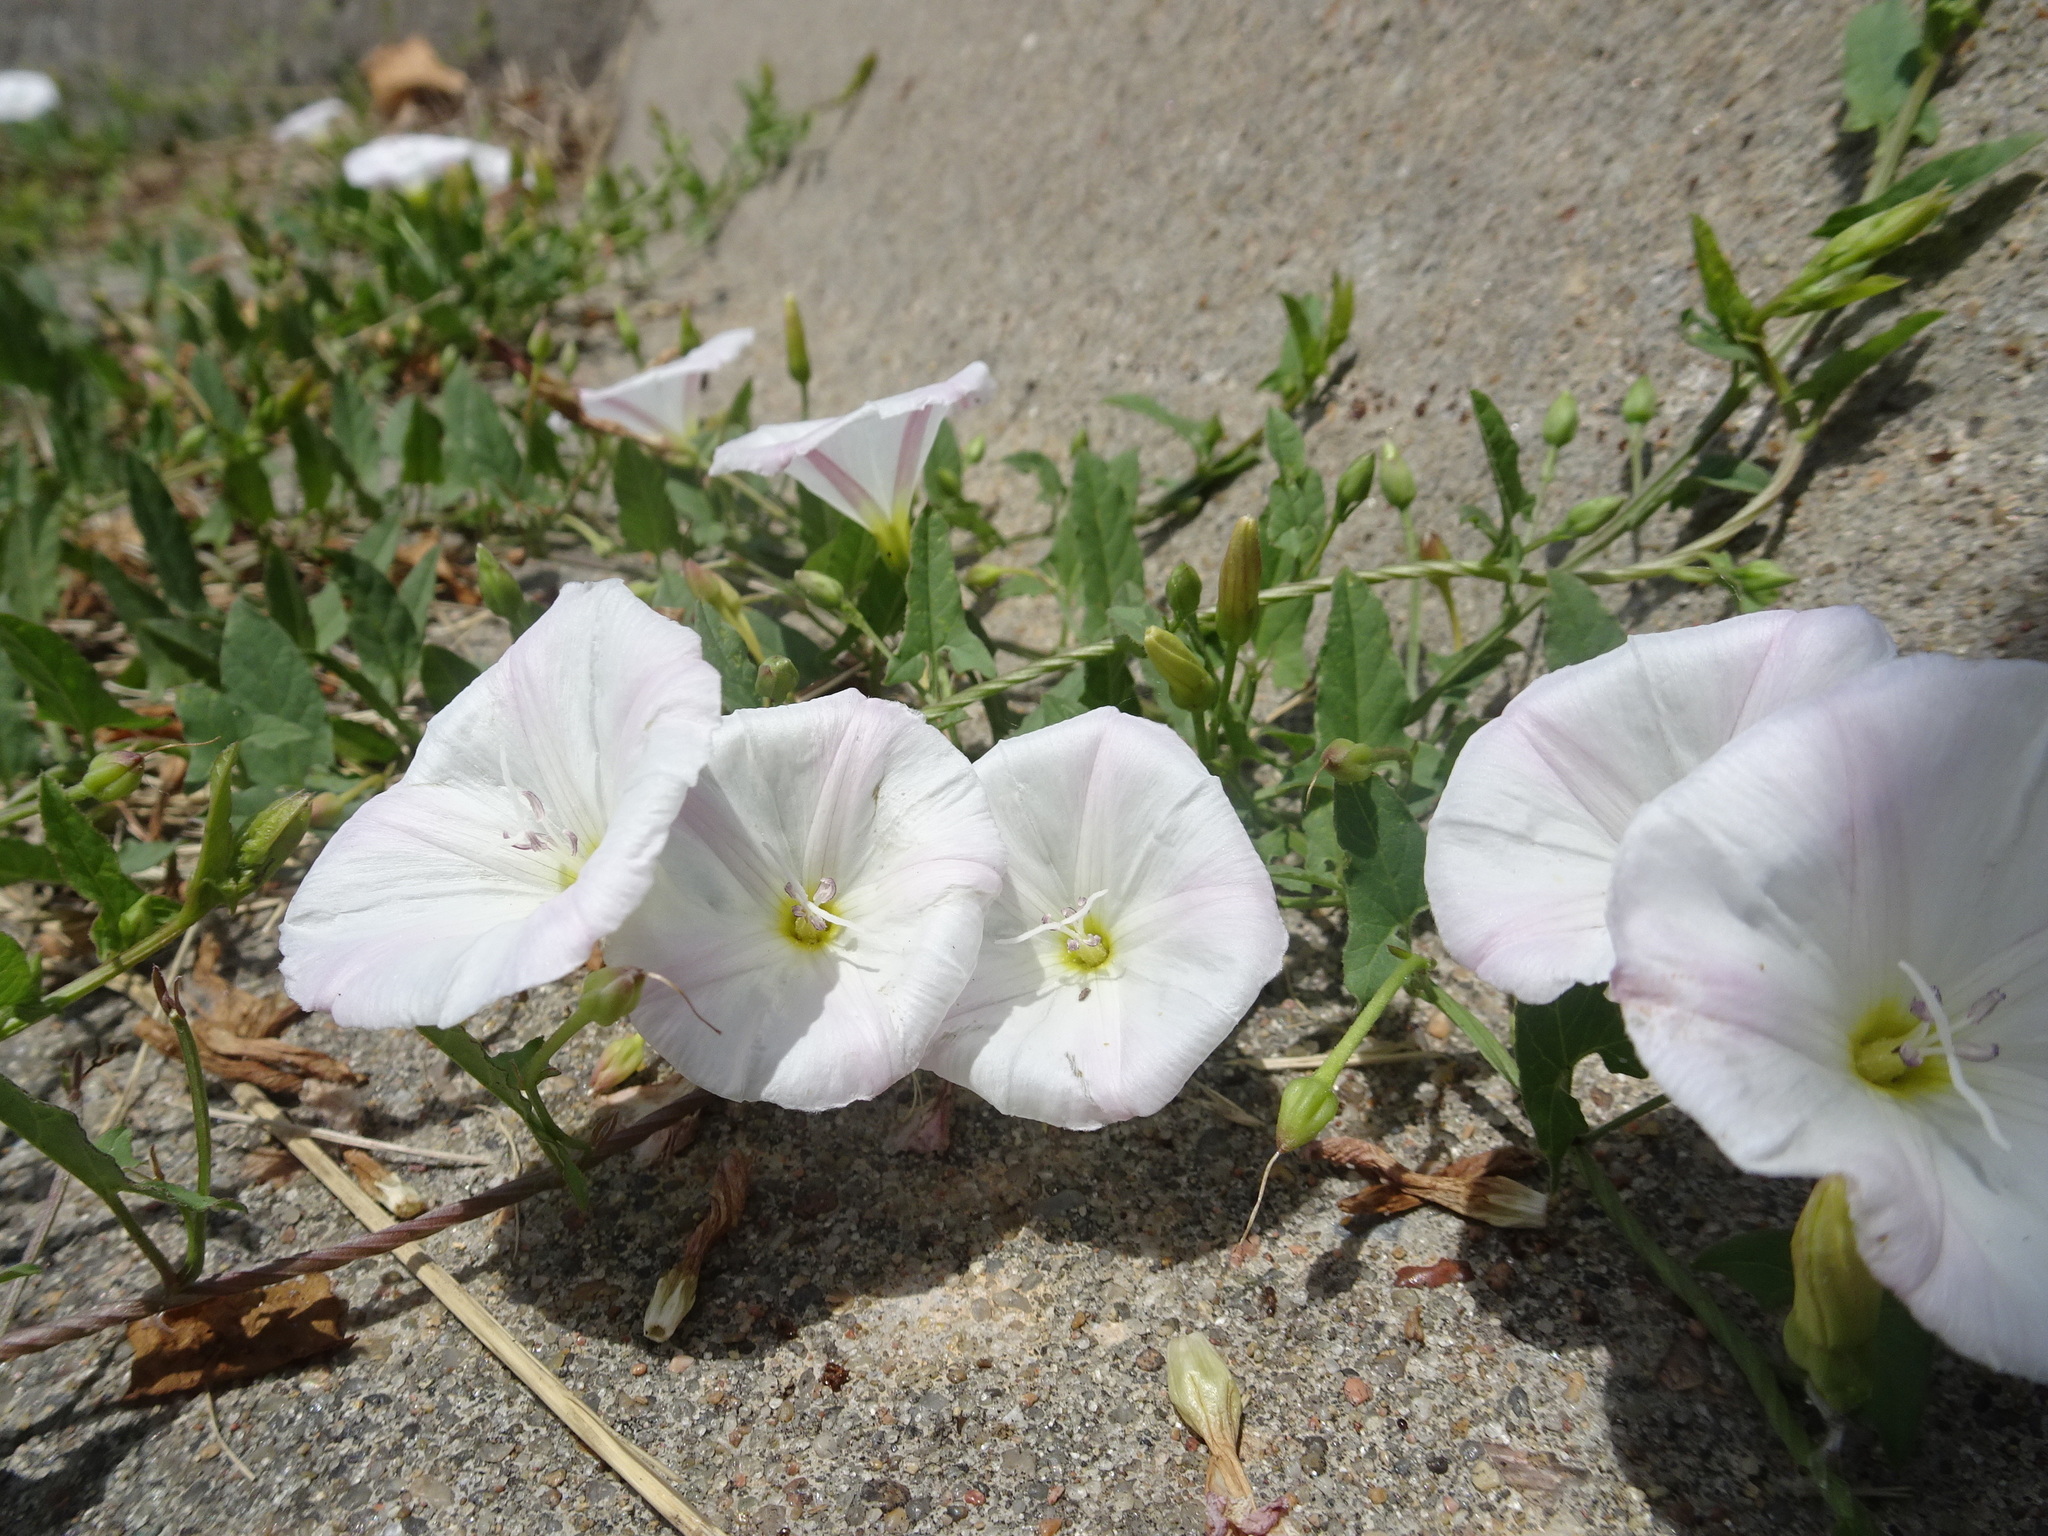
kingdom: Plantae
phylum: Tracheophyta
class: Magnoliopsida
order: Solanales
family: Convolvulaceae
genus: Convolvulus
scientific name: Convolvulus arvensis
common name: Field bindweed
